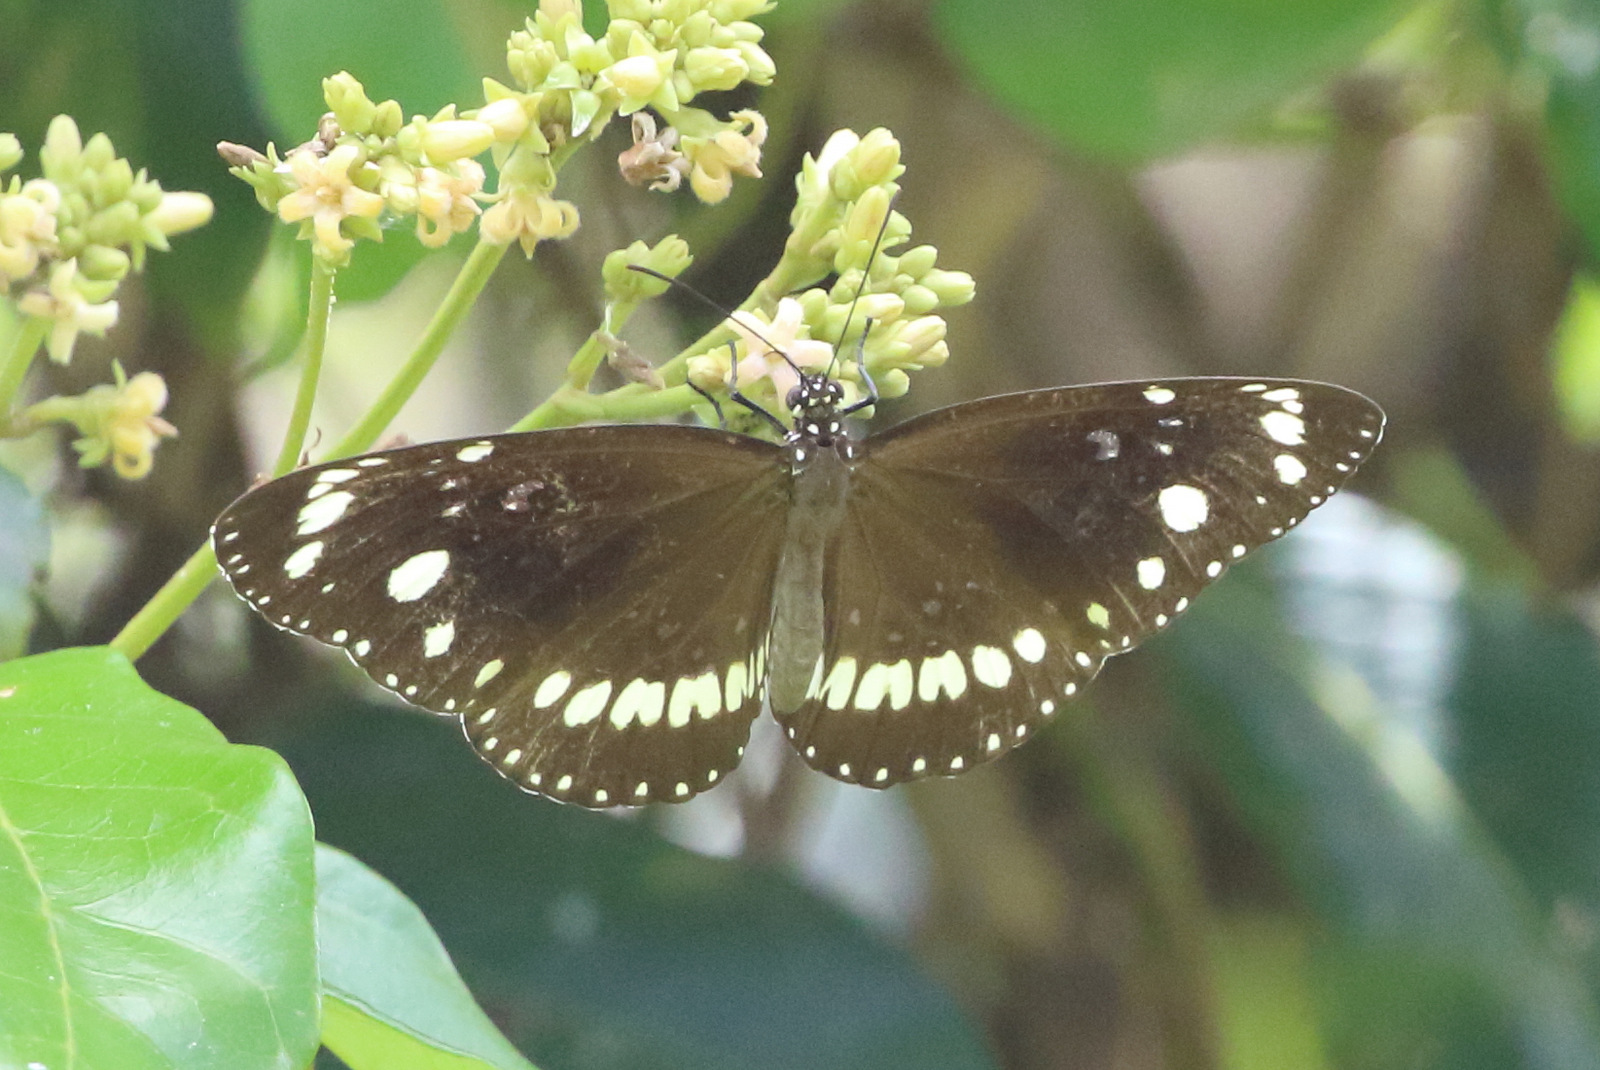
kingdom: Animalia
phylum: Arthropoda
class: Insecta
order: Lepidoptera
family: Nymphalidae
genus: Euploea
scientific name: Euploea core
